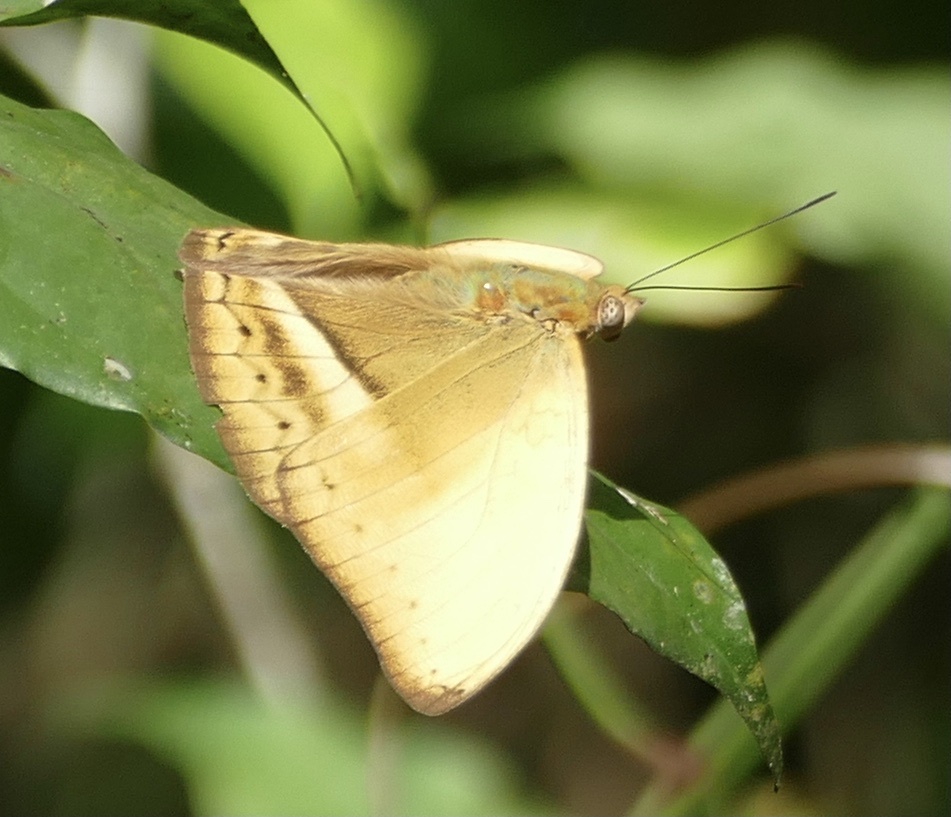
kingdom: Animalia
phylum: Arthropoda
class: Insecta
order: Lepidoptera
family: Nymphalidae
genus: Cymothoe
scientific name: Cymothoe egesta
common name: Common yellow glider
